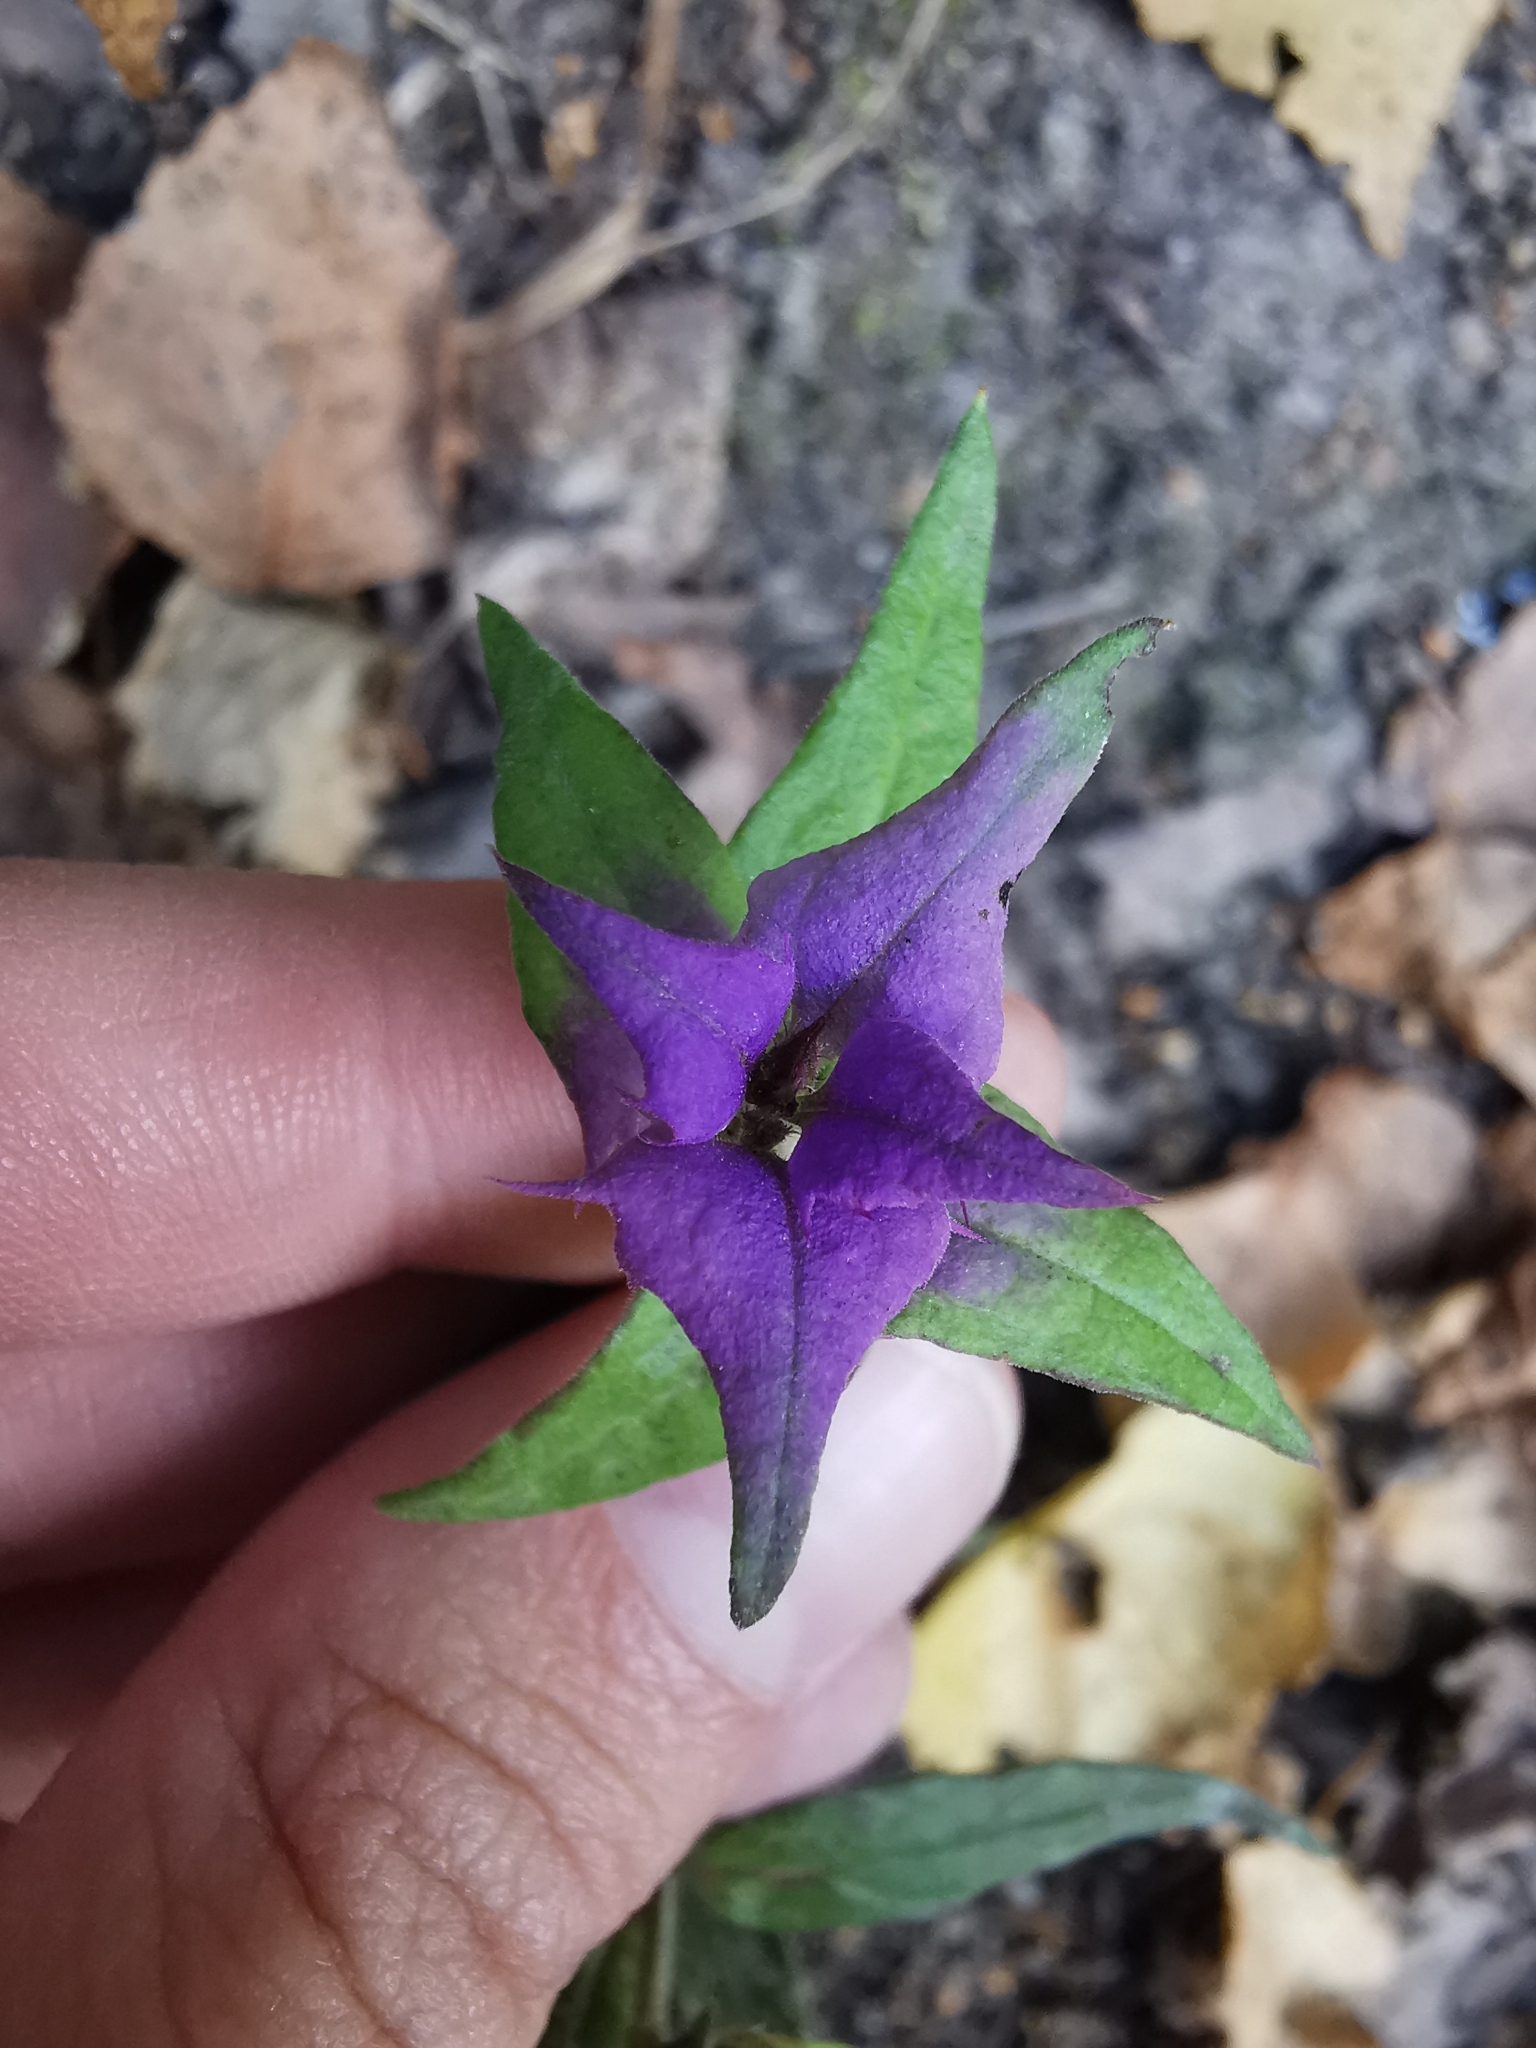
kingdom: Plantae
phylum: Tracheophyta
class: Magnoliopsida
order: Lamiales
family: Orobanchaceae
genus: Melampyrum
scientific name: Melampyrum nemorosum
